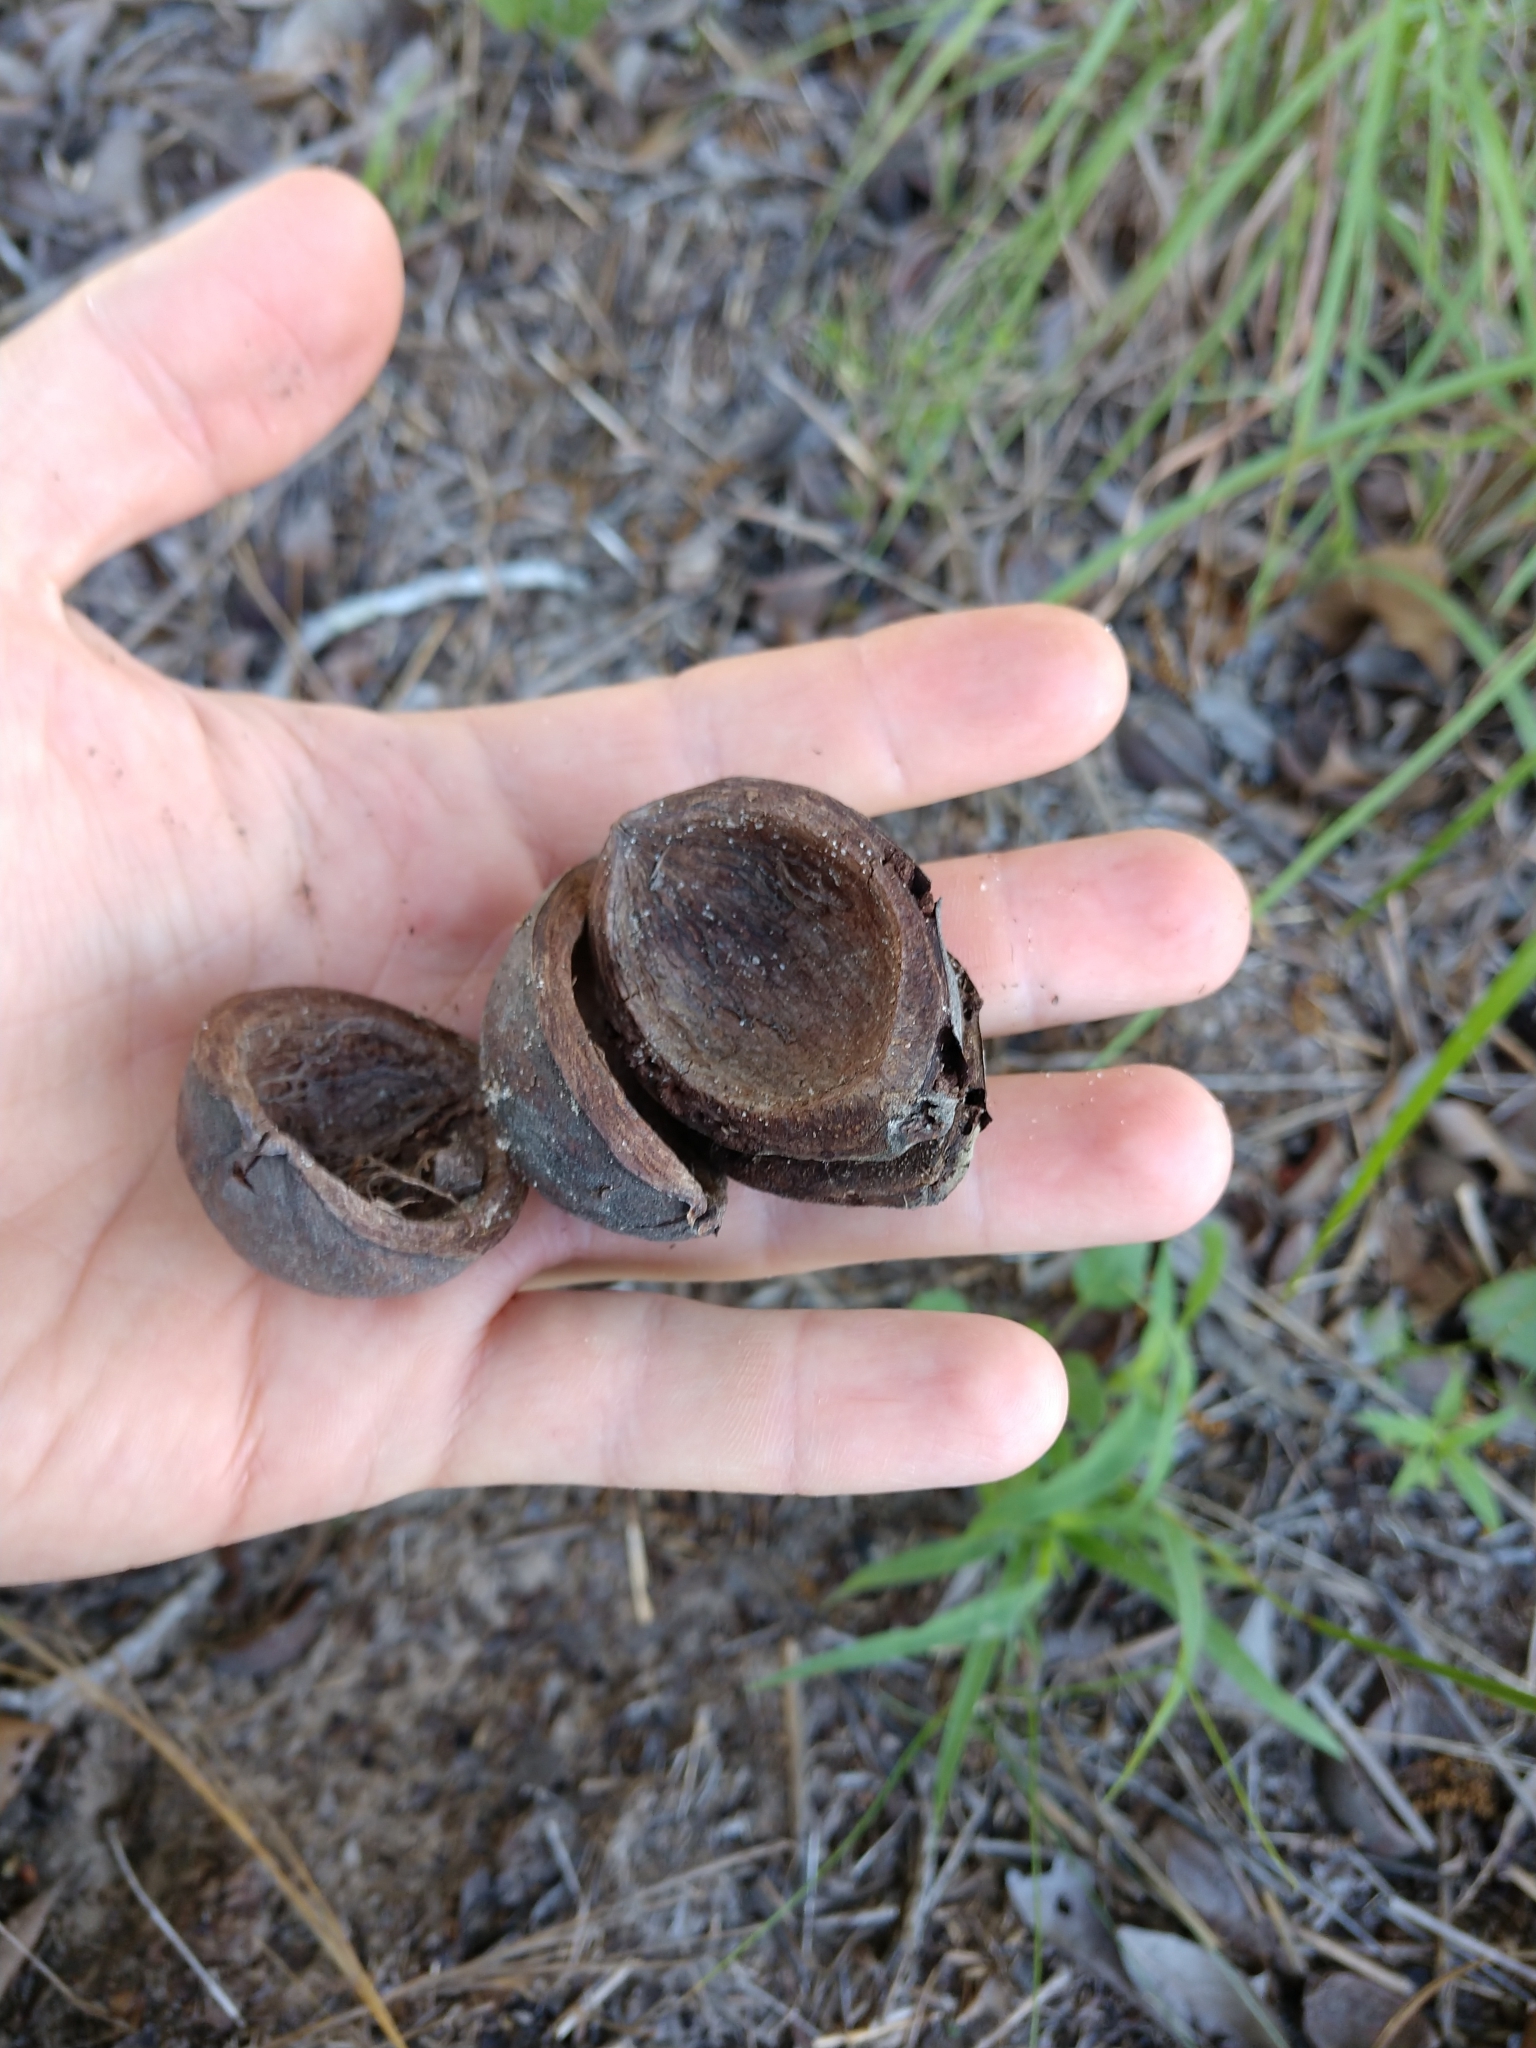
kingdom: Plantae
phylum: Tracheophyta
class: Magnoliopsida
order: Fagales
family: Juglandaceae
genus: Carya
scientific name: Carya texana
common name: Black hickory
